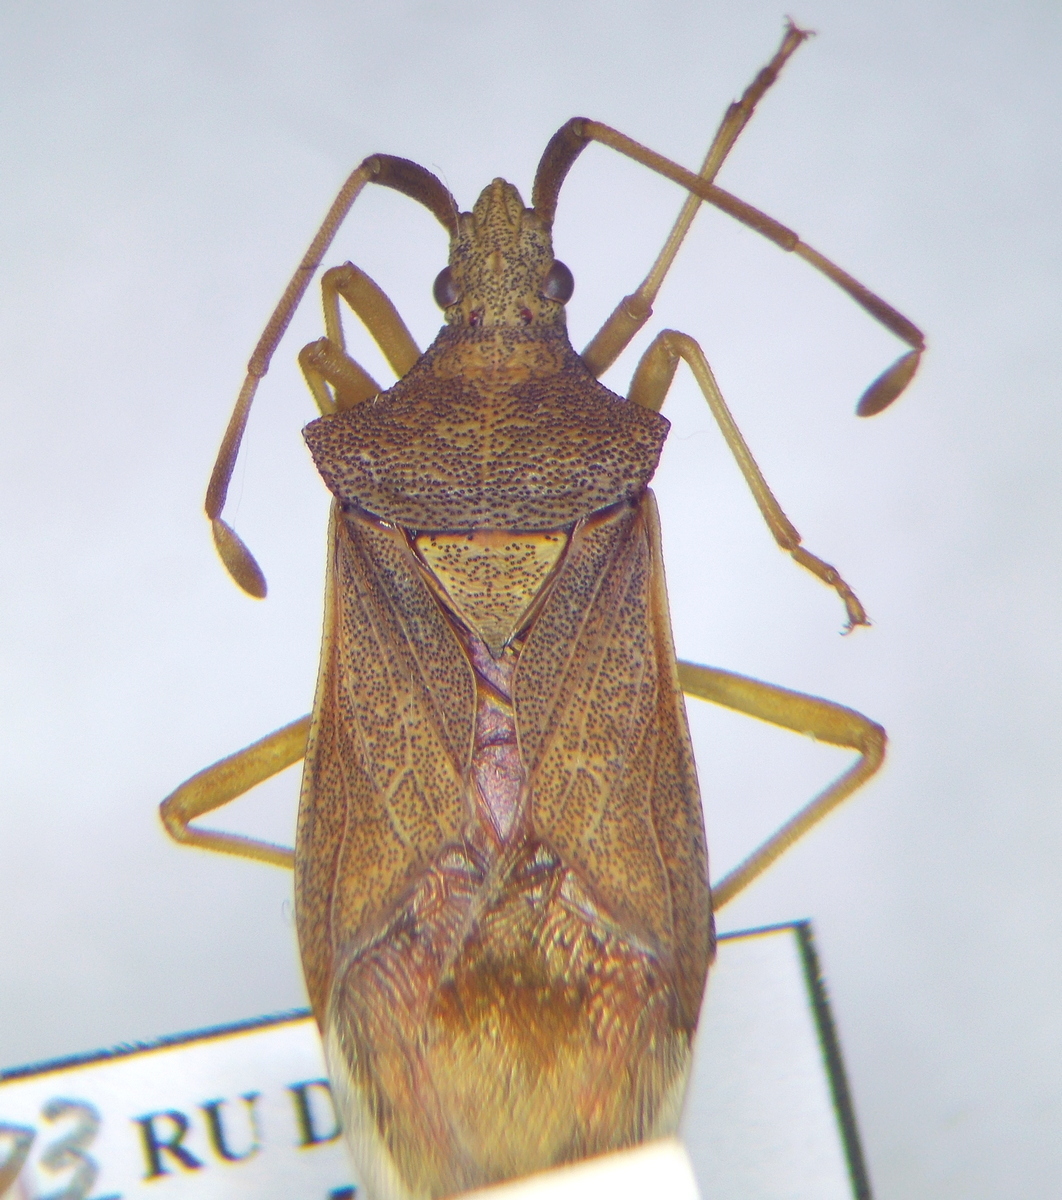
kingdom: Animalia
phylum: Arthropoda
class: Insecta
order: Hemiptera
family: Coreidae
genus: Gonocerus
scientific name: Gonocerus acuteangulatus
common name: Box bug
